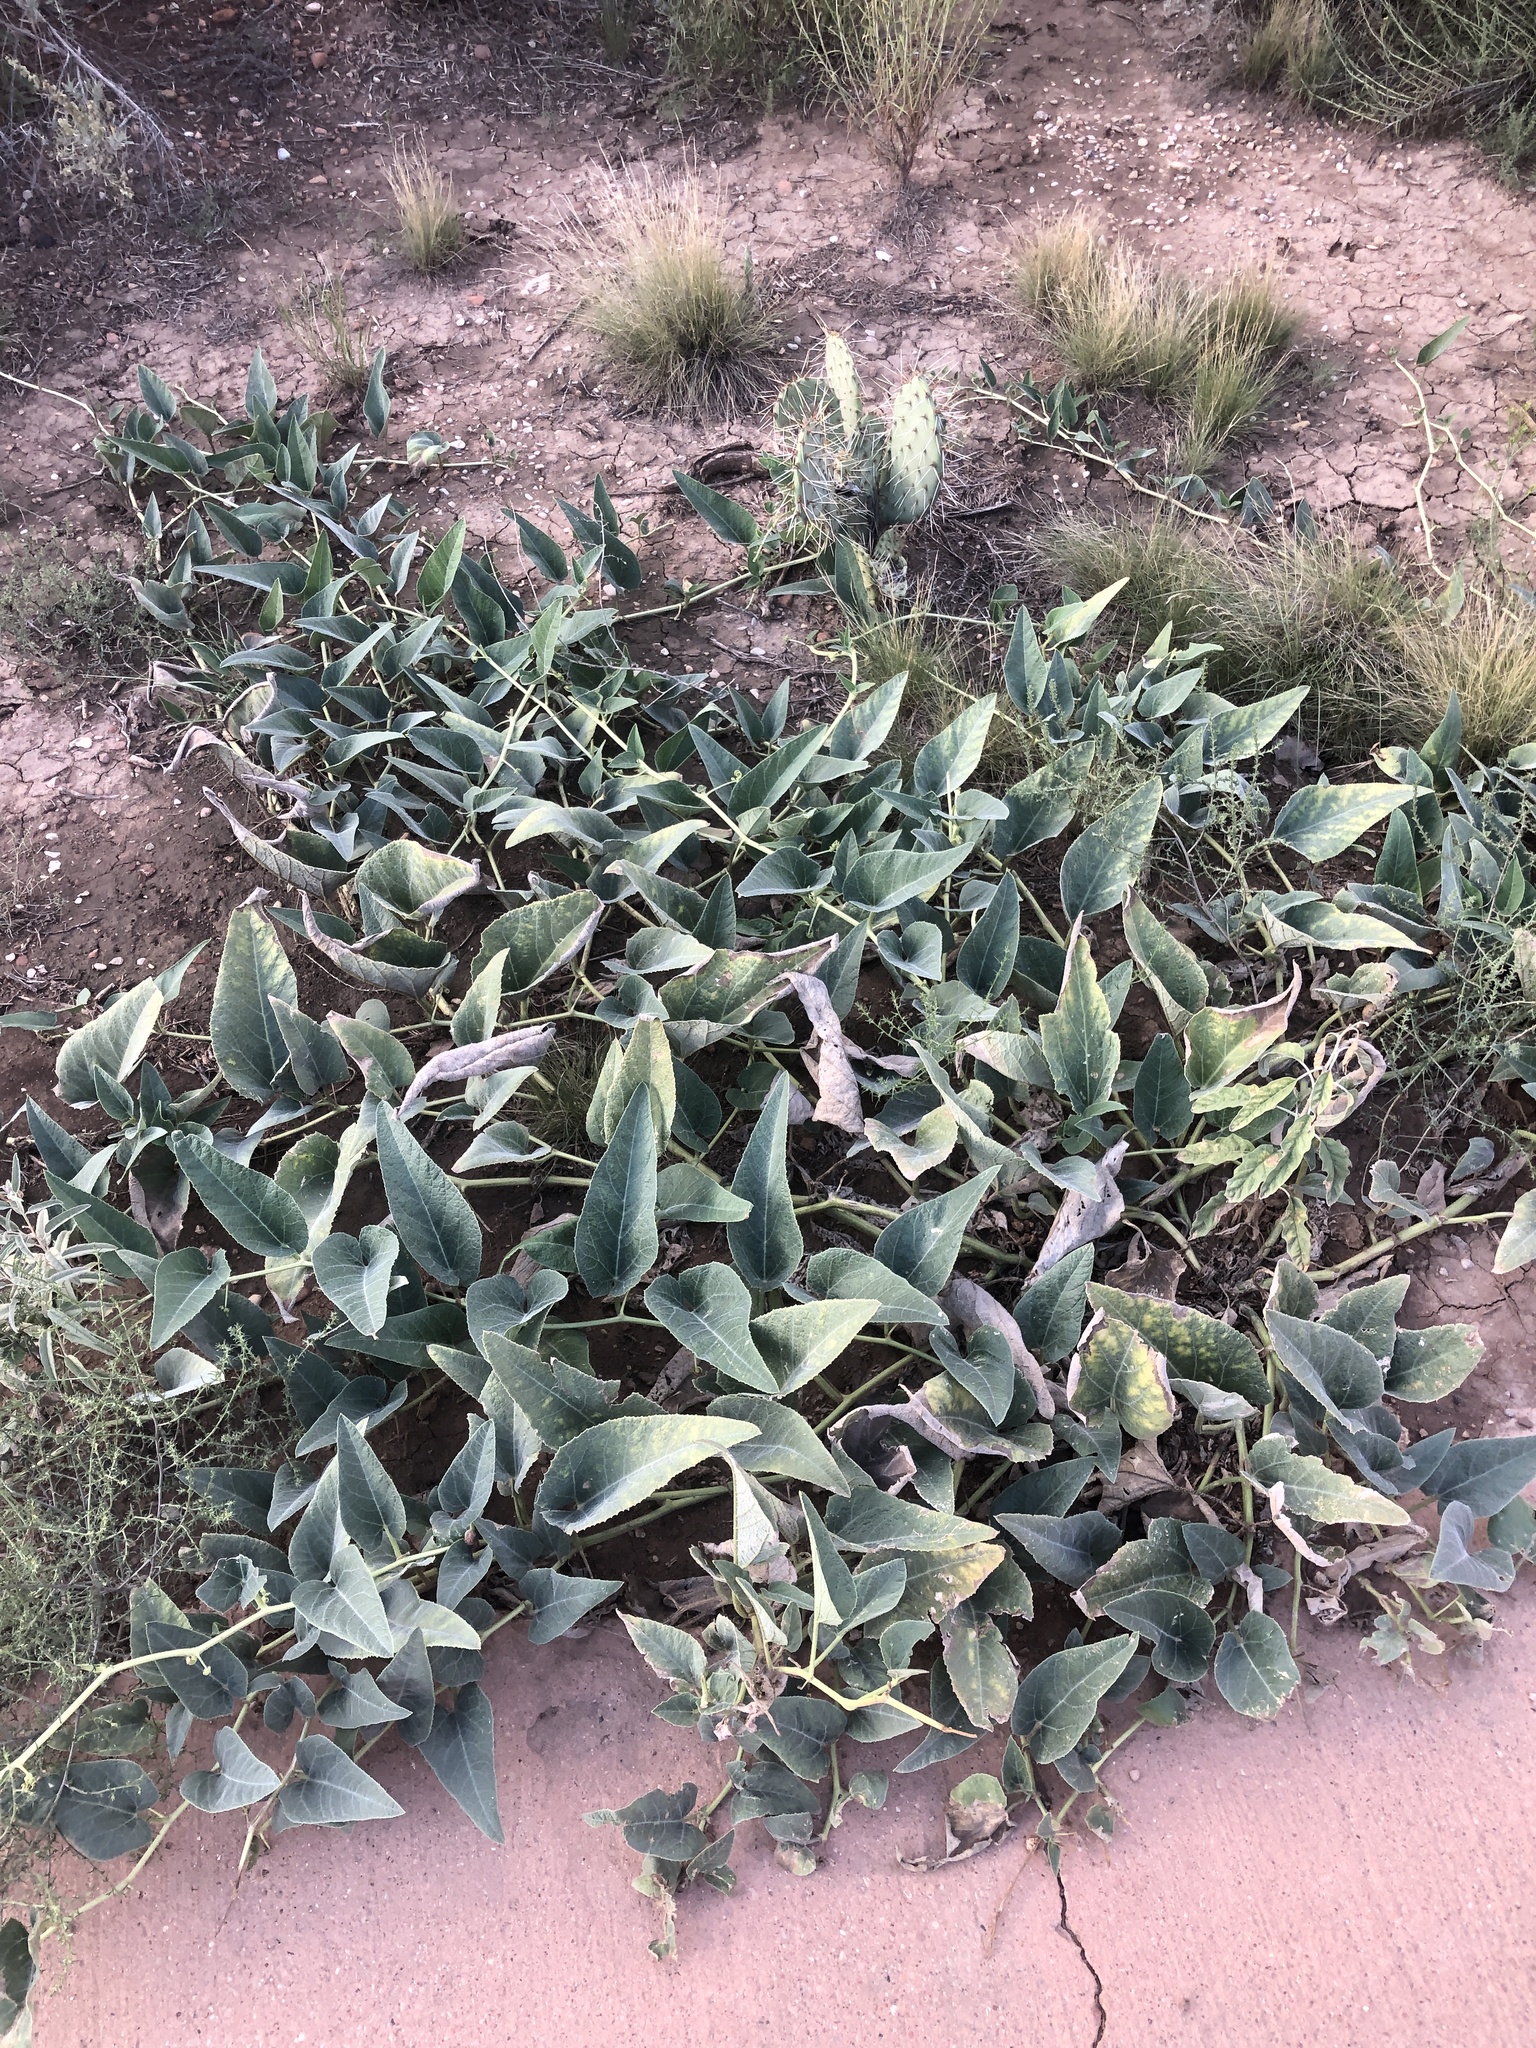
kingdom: Plantae
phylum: Tracheophyta
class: Magnoliopsida
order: Cucurbitales
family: Cucurbitaceae
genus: Cucurbita
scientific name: Cucurbita foetidissima
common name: Buffalo gourd
